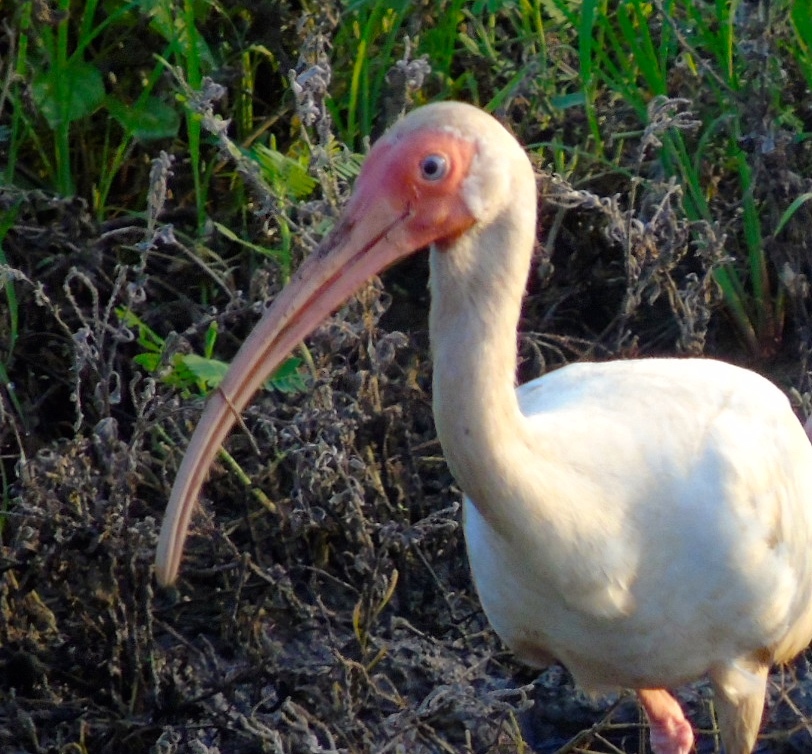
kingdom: Animalia
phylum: Chordata
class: Aves
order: Pelecaniformes
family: Threskiornithidae
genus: Eudocimus
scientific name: Eudocimus albus
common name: White ibis
